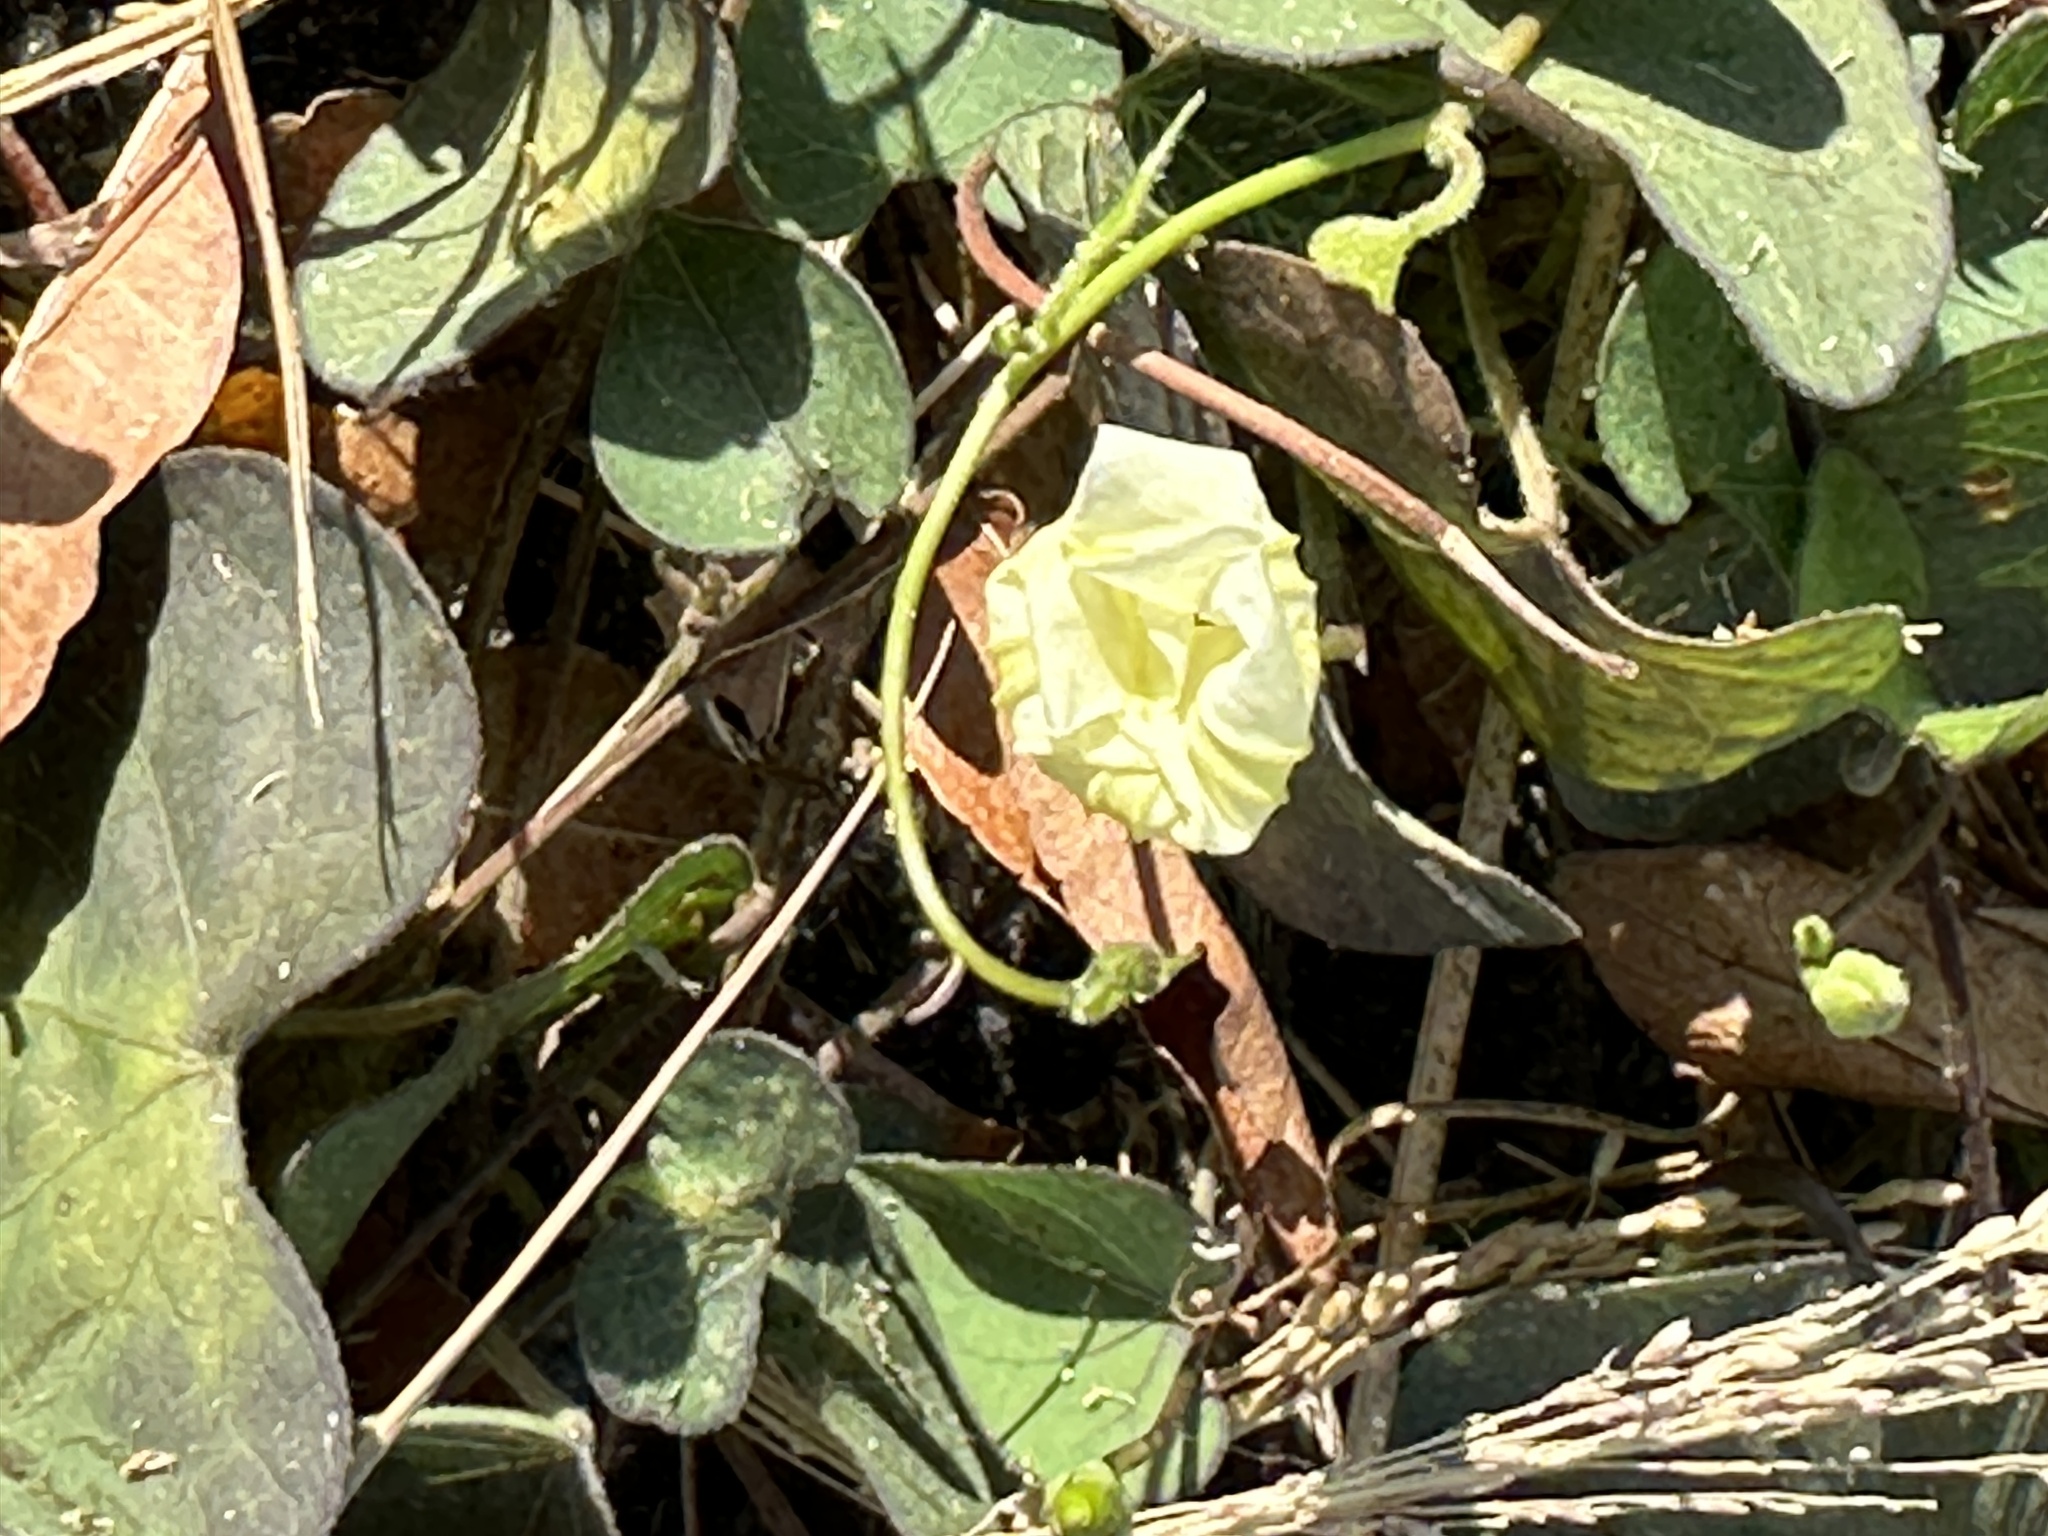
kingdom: Plantae
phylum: Tracheophyta
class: Magnoliopsida
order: Solanales
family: Convolvulaceae
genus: Ipomoea
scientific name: Ipomoea obscura
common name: Obscure morning-glory
